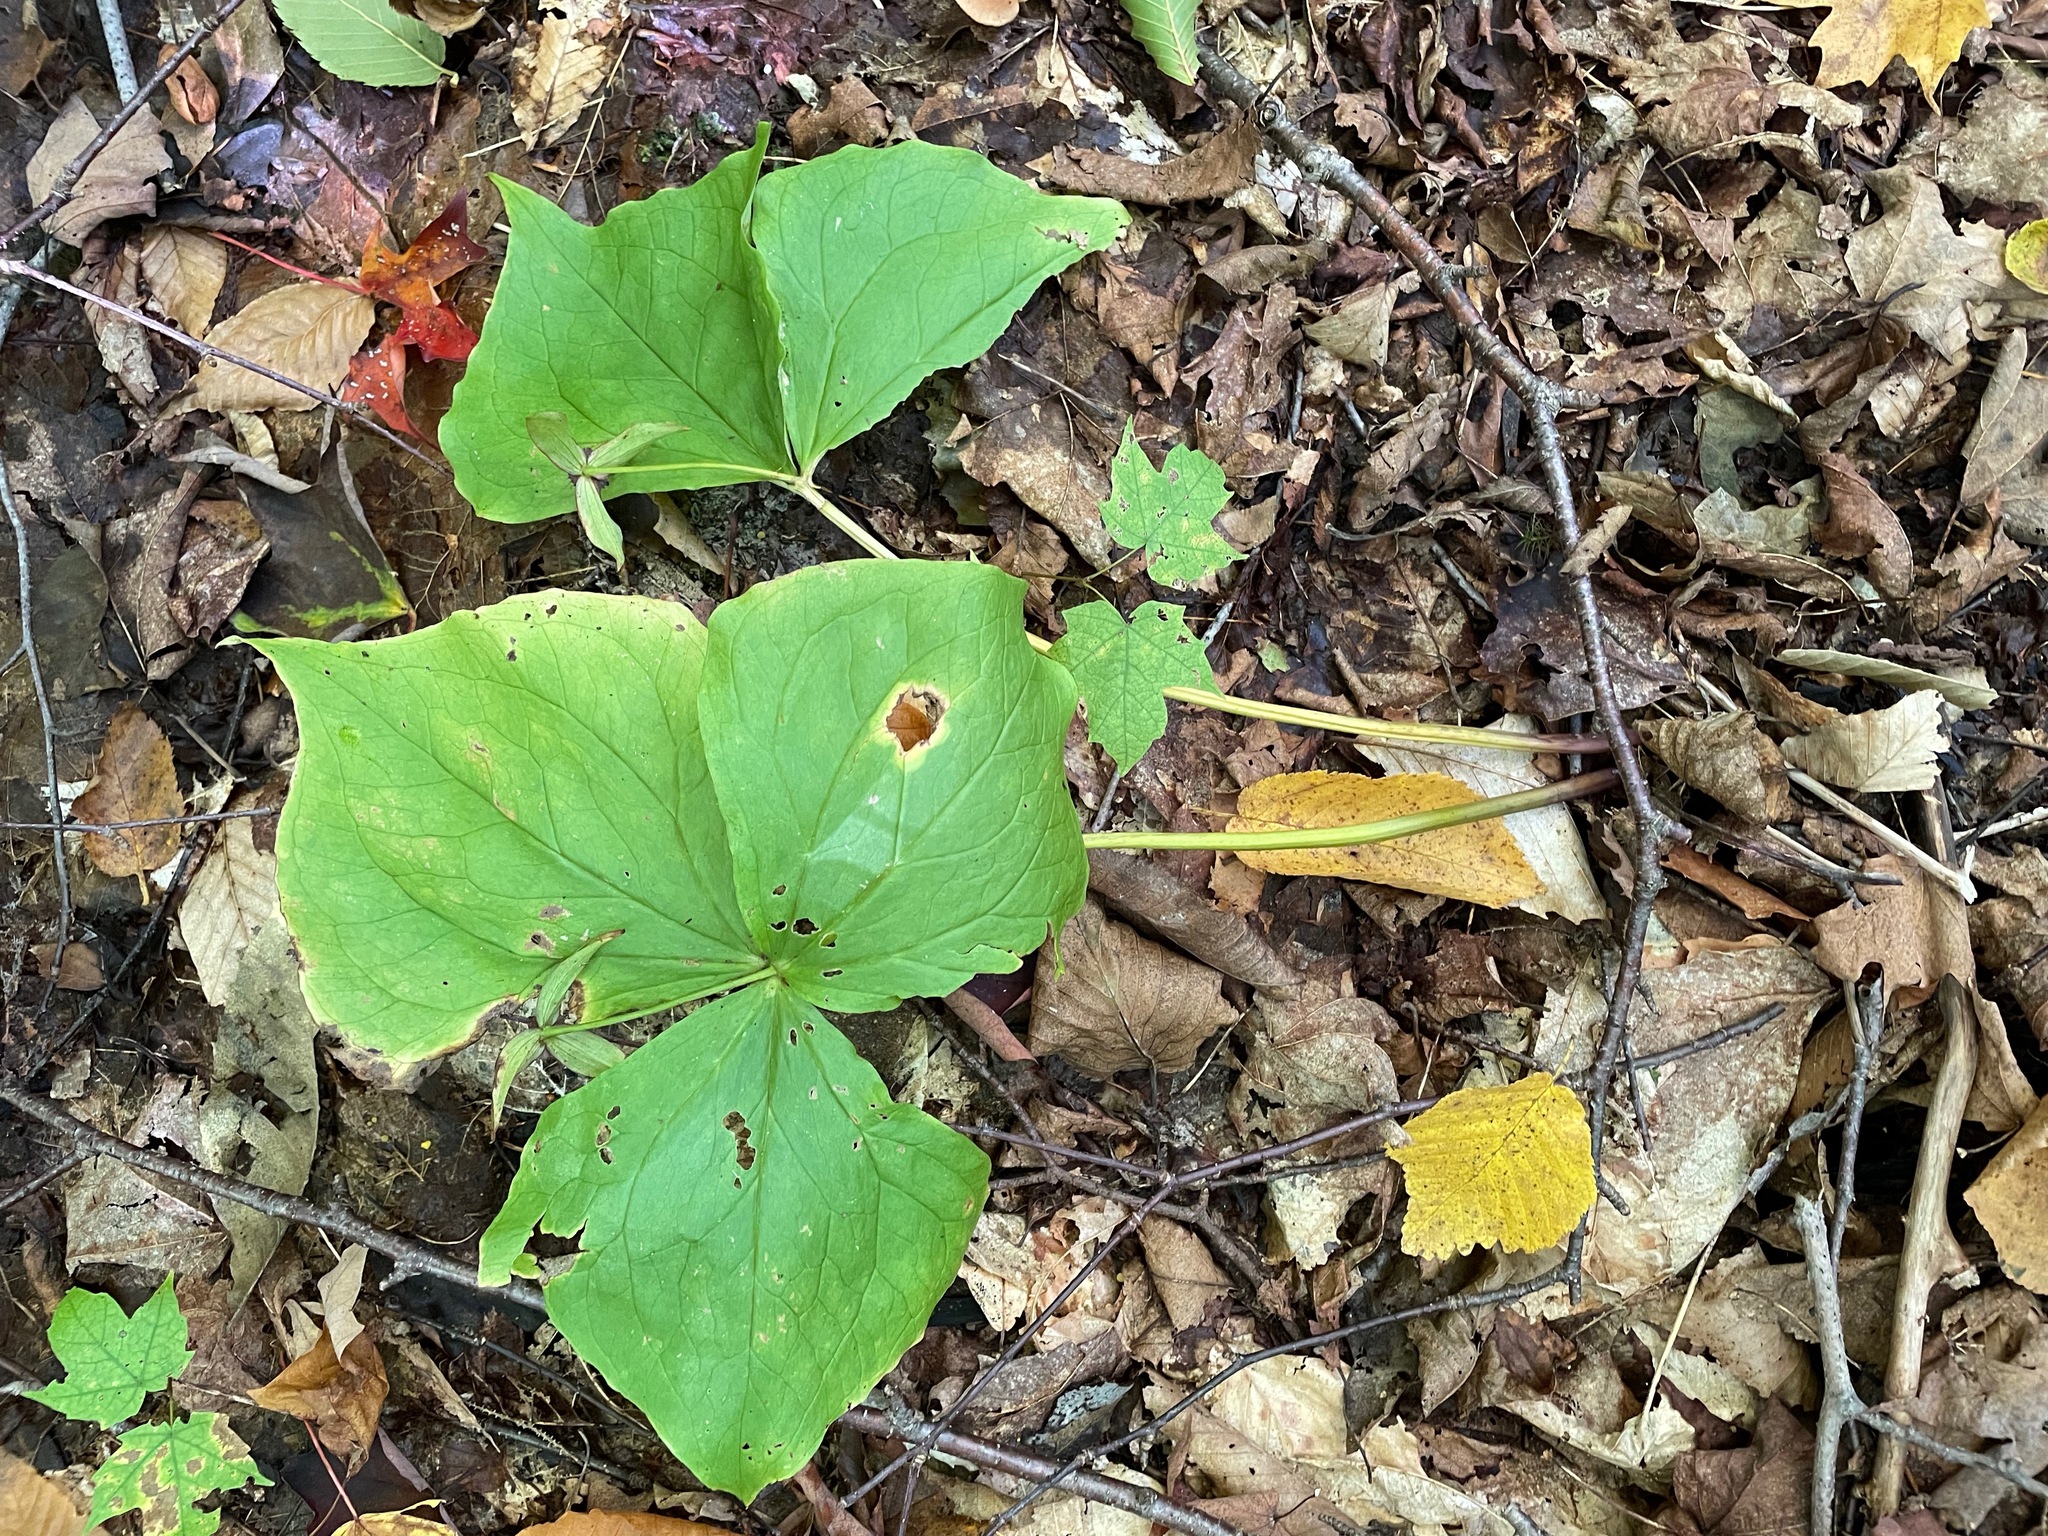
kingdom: Plantae
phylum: Tracheophyta
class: Liliopsida
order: Liliales
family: Melanthiaceae
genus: Trillium
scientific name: Trillium erectum
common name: Purple trillium
